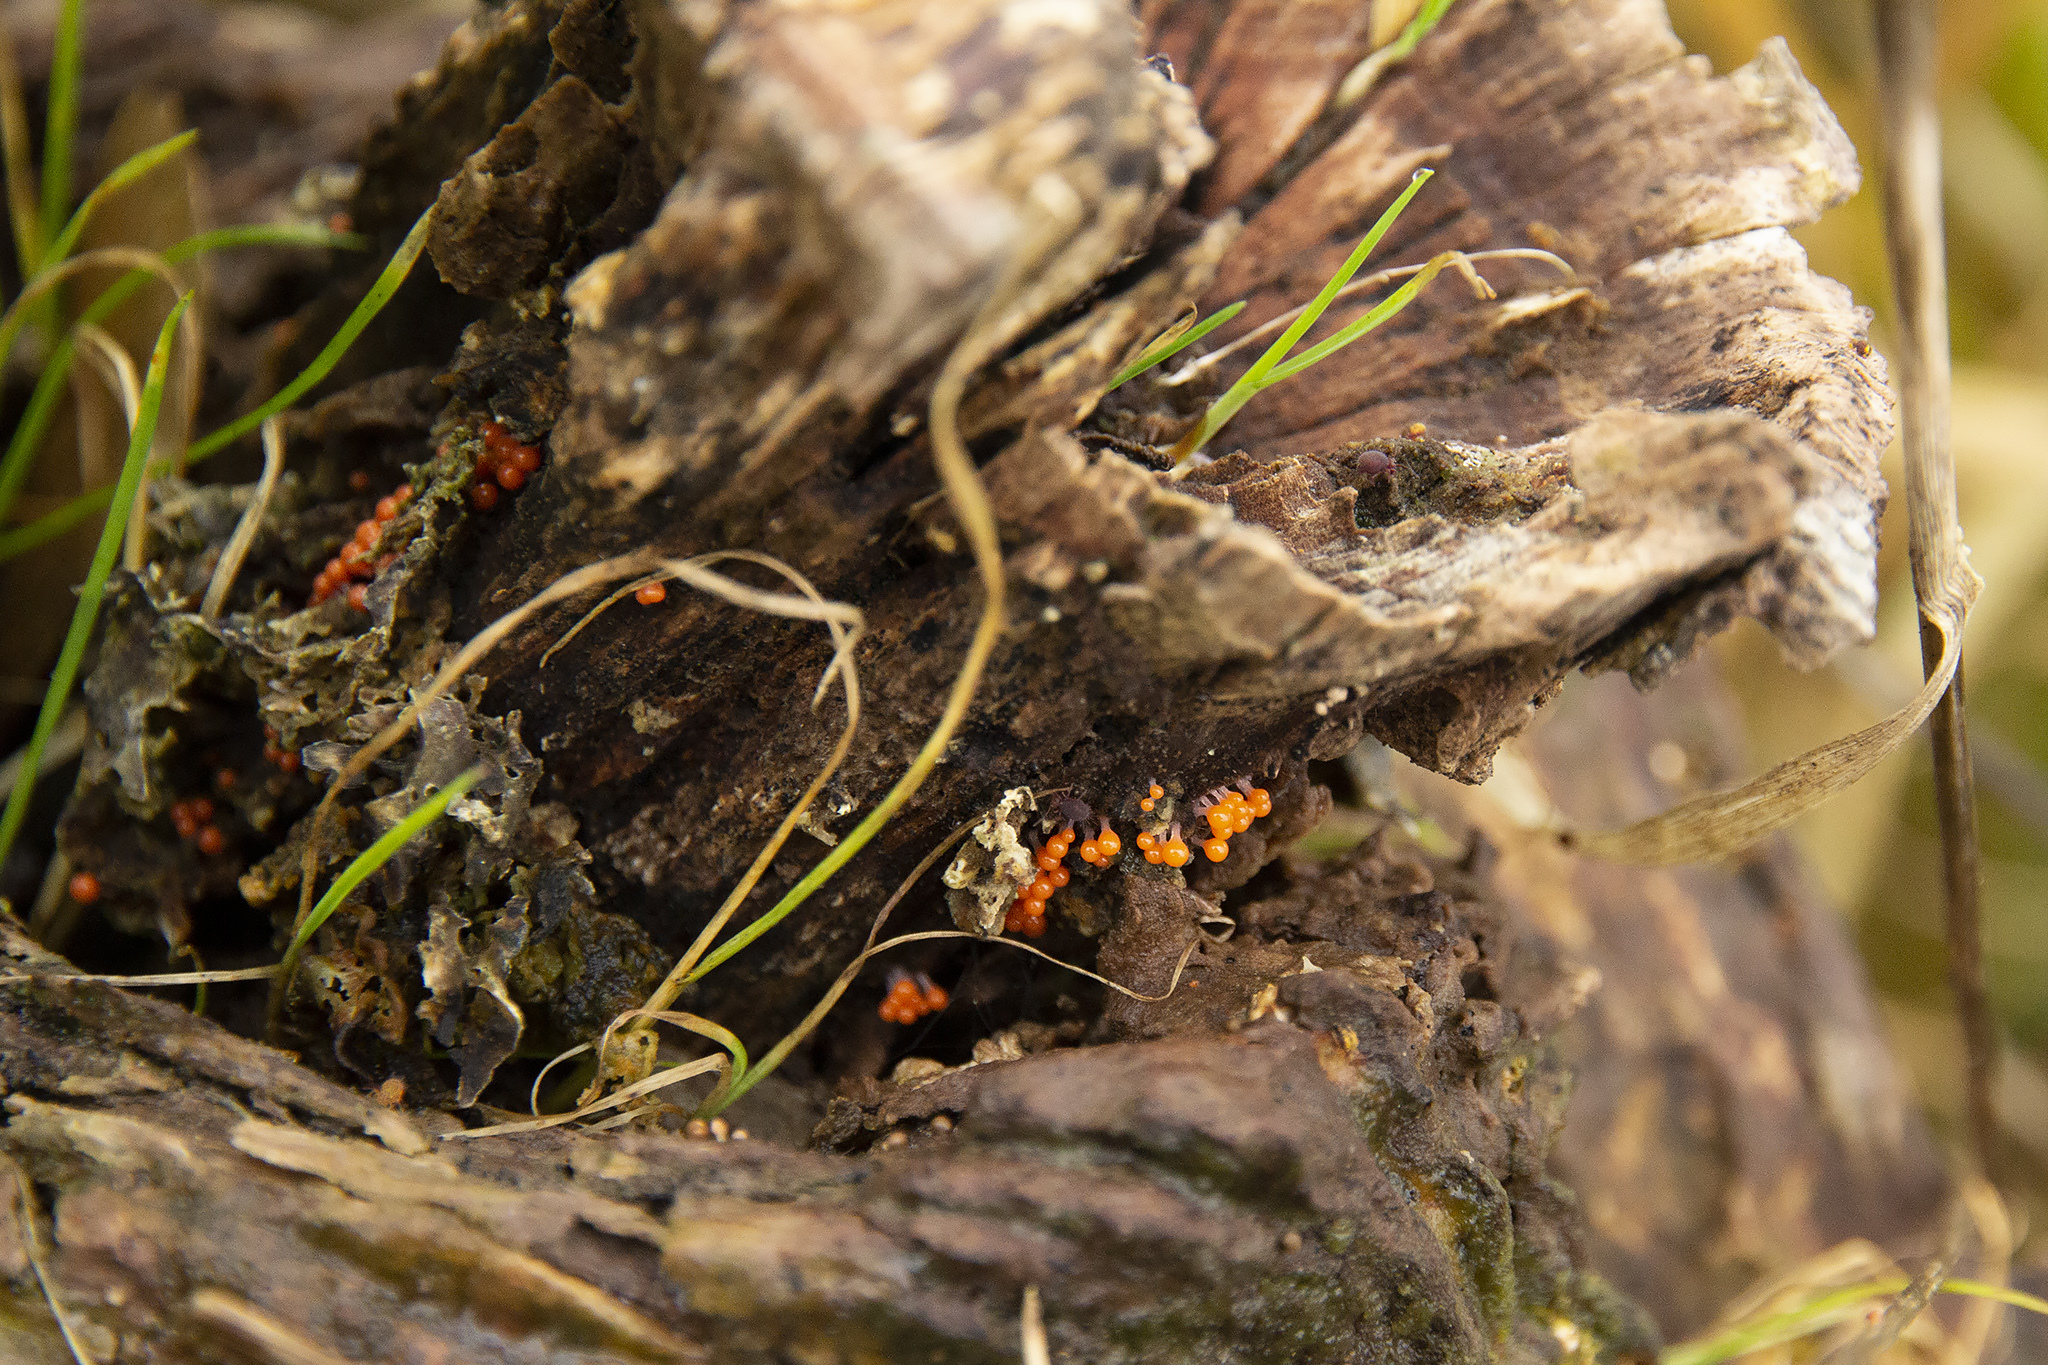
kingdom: Protozoa
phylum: Mycetozoa
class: Myxomycetes
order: Trichiales
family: Arcyriaceae
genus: Hemitrichia
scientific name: Hemitrichia decipiens
